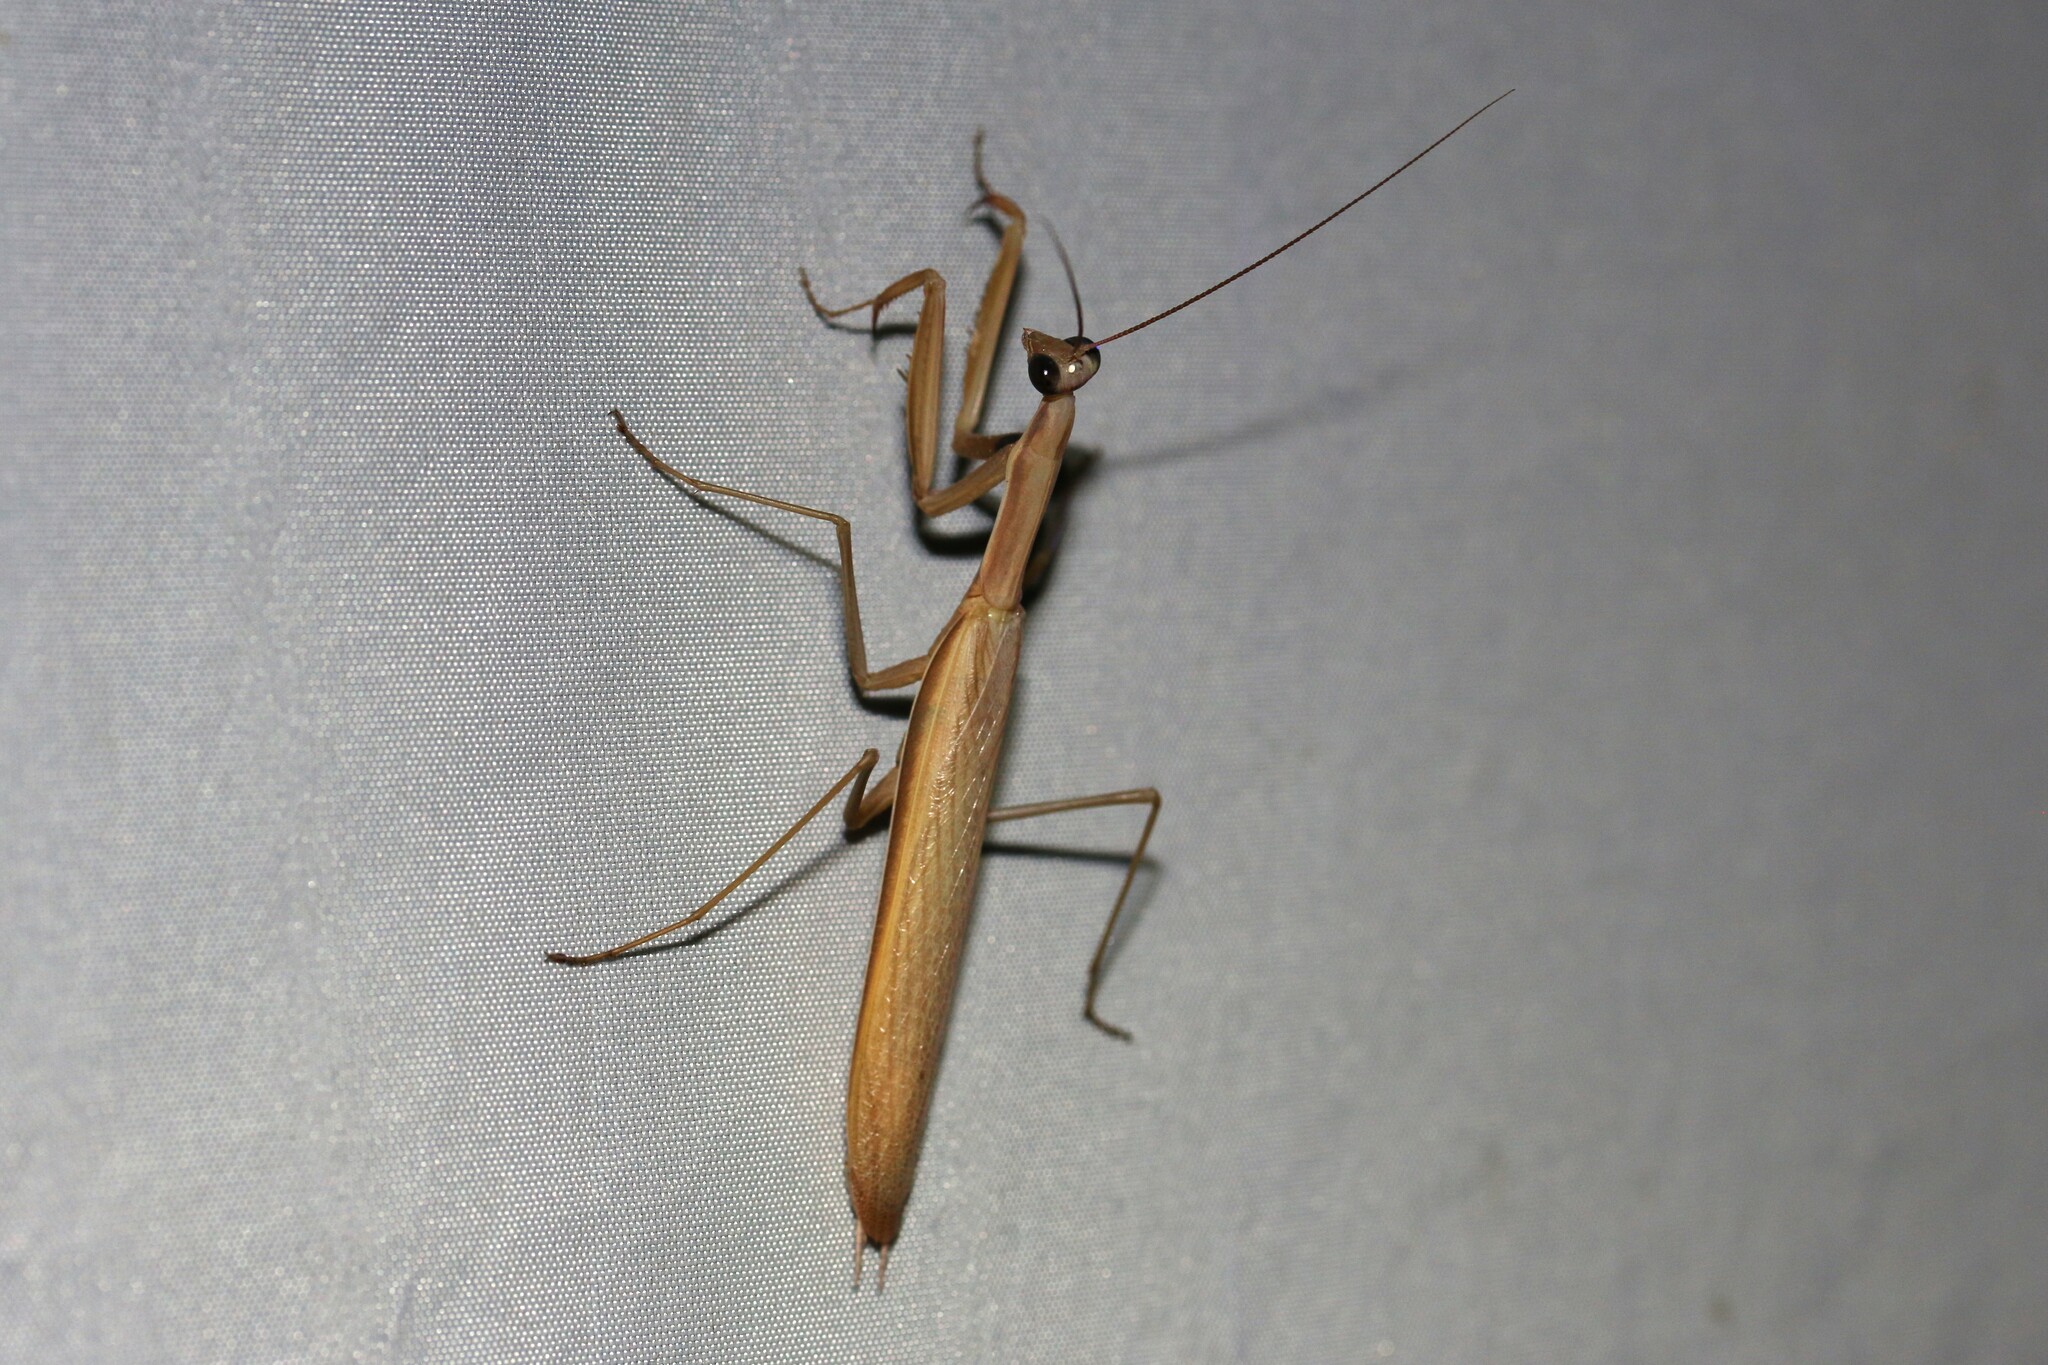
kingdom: Animalia
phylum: Arthropoda
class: Insecta
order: Mantodea
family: Mantidae
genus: Mantis
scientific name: Mantis religiosa
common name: Praying mantis
